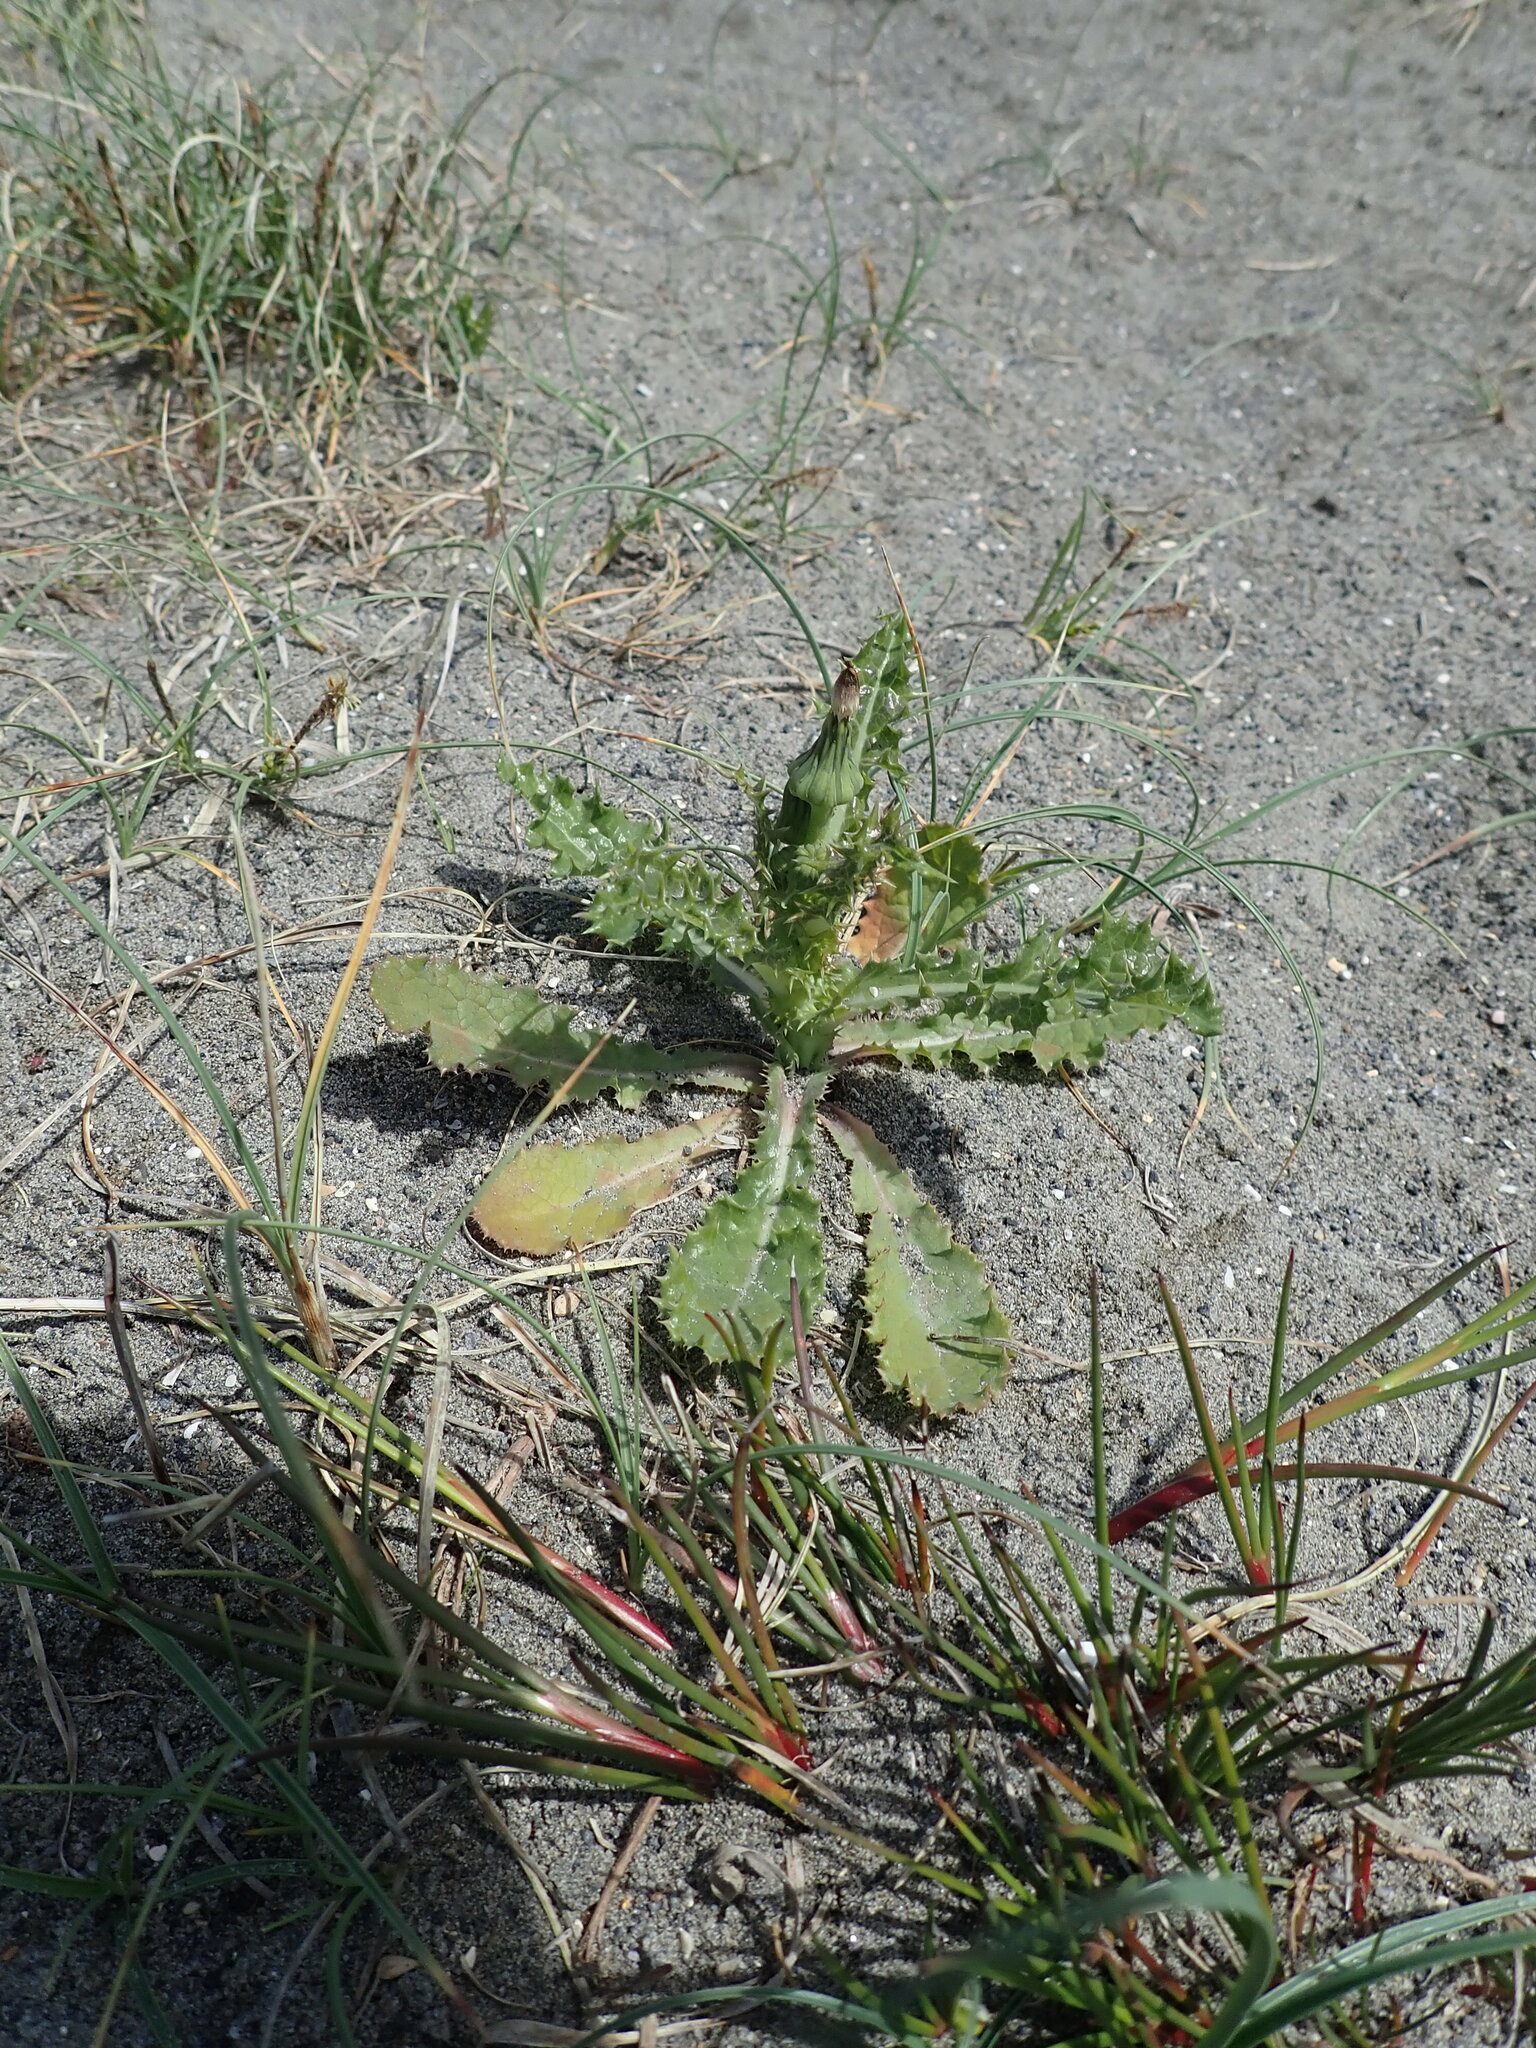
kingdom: Plantae
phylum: Tracheophyta
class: Magnoliopsida
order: Asterales
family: Asteraceae
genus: Sonchus
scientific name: Sonchus asper
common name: Prickly sow-thistle
